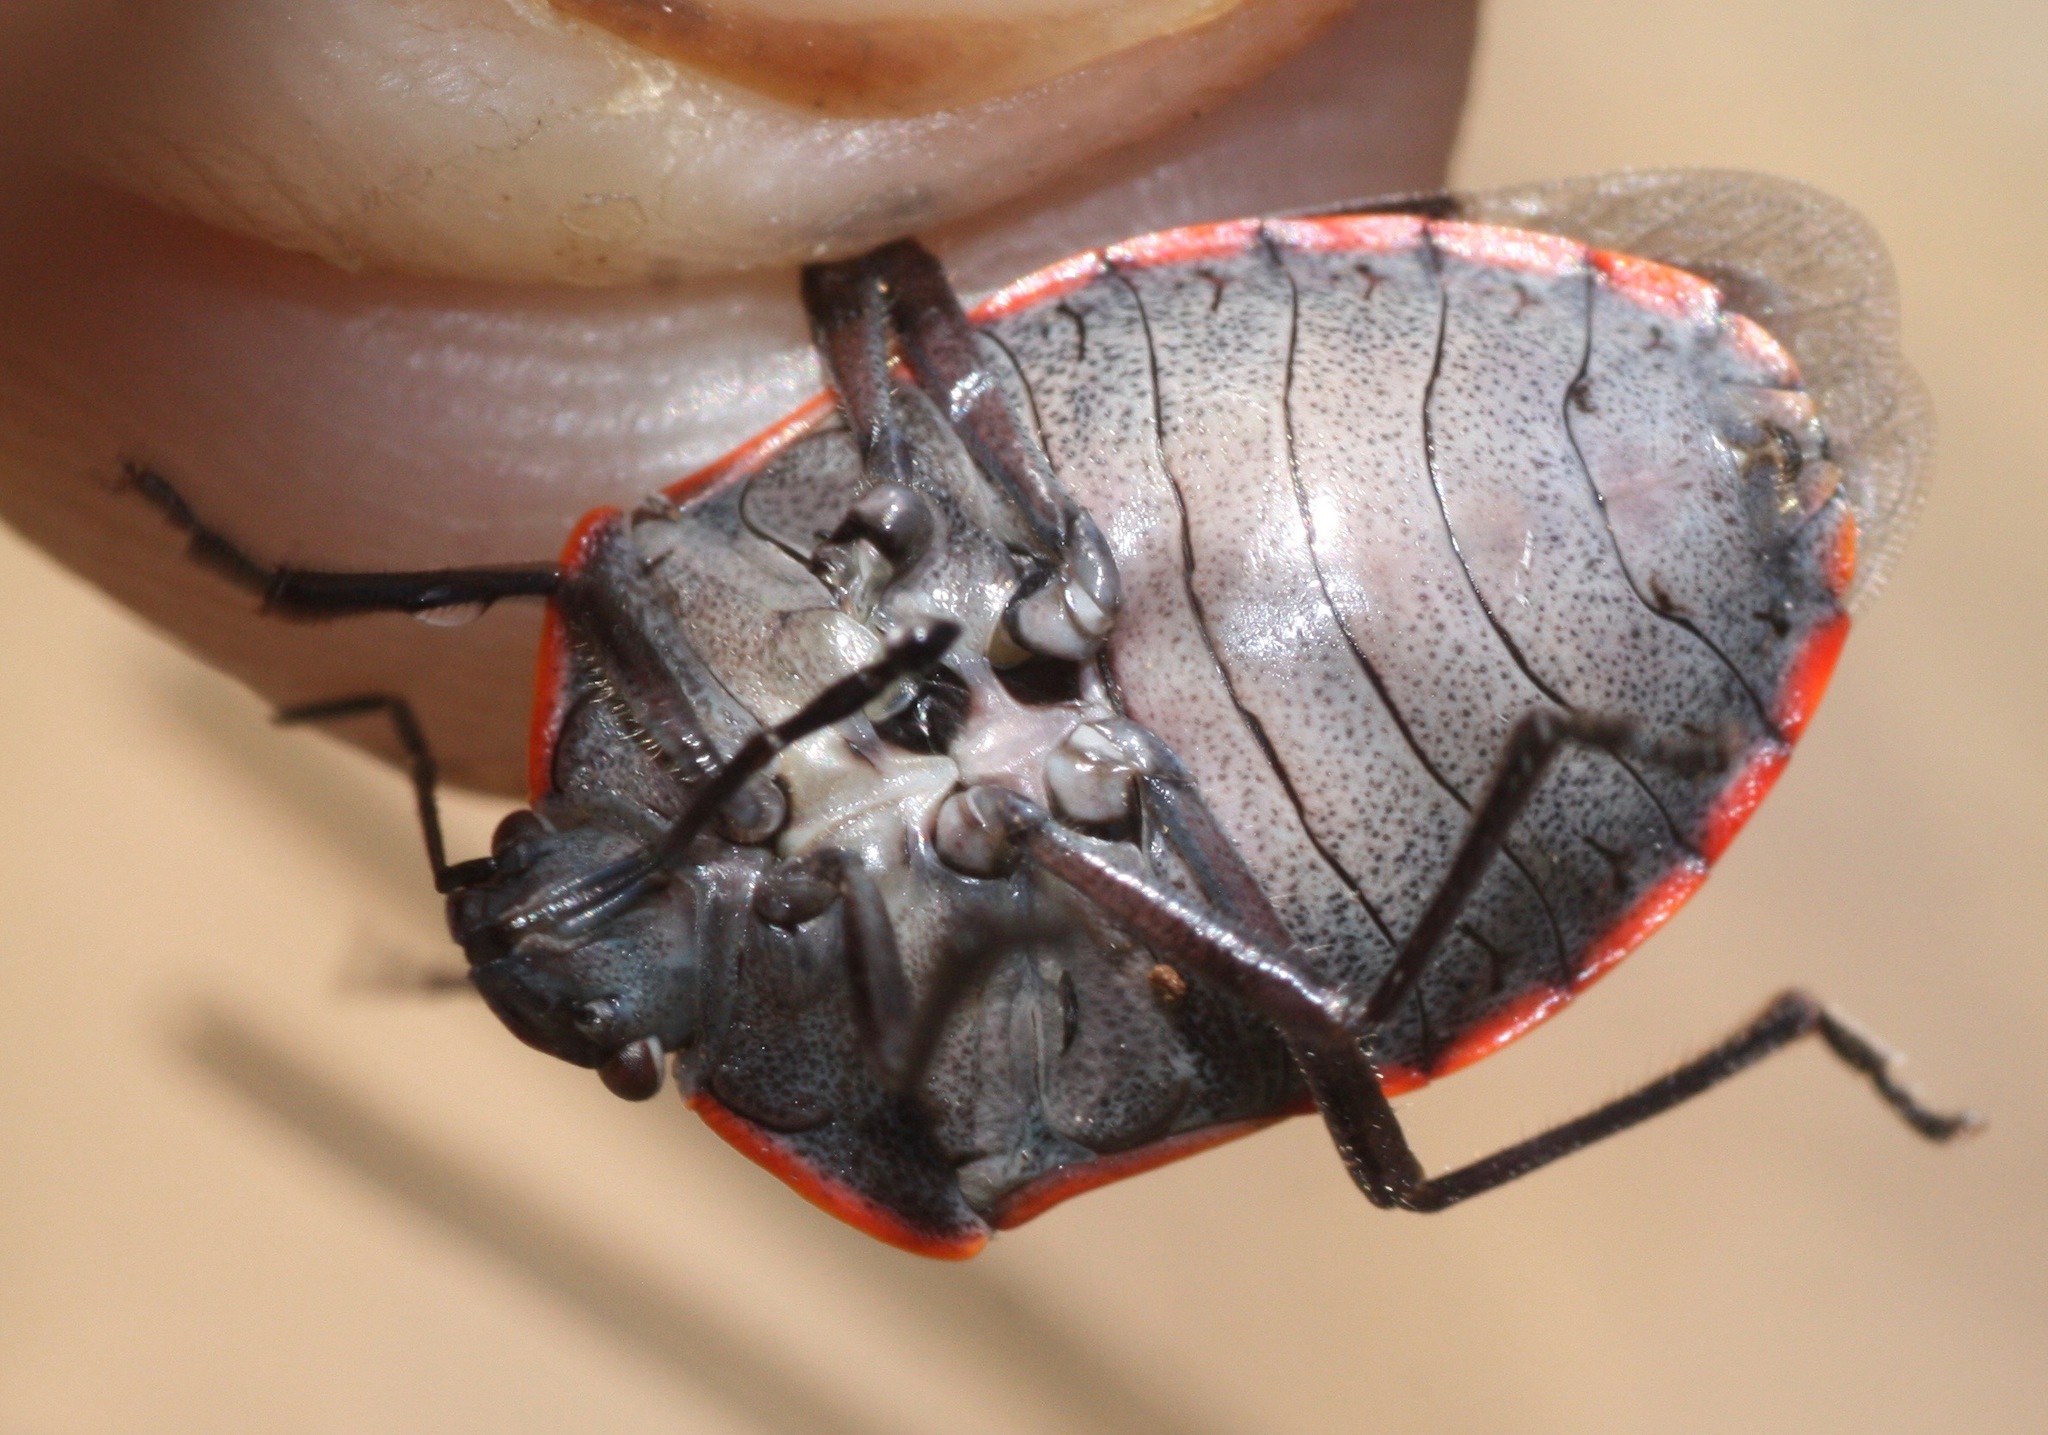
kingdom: Animalia
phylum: Arthropoda
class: Insecta
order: Hemiptera
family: Pentatomidae
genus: Chlorochroa
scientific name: Chlorochroa ligata
